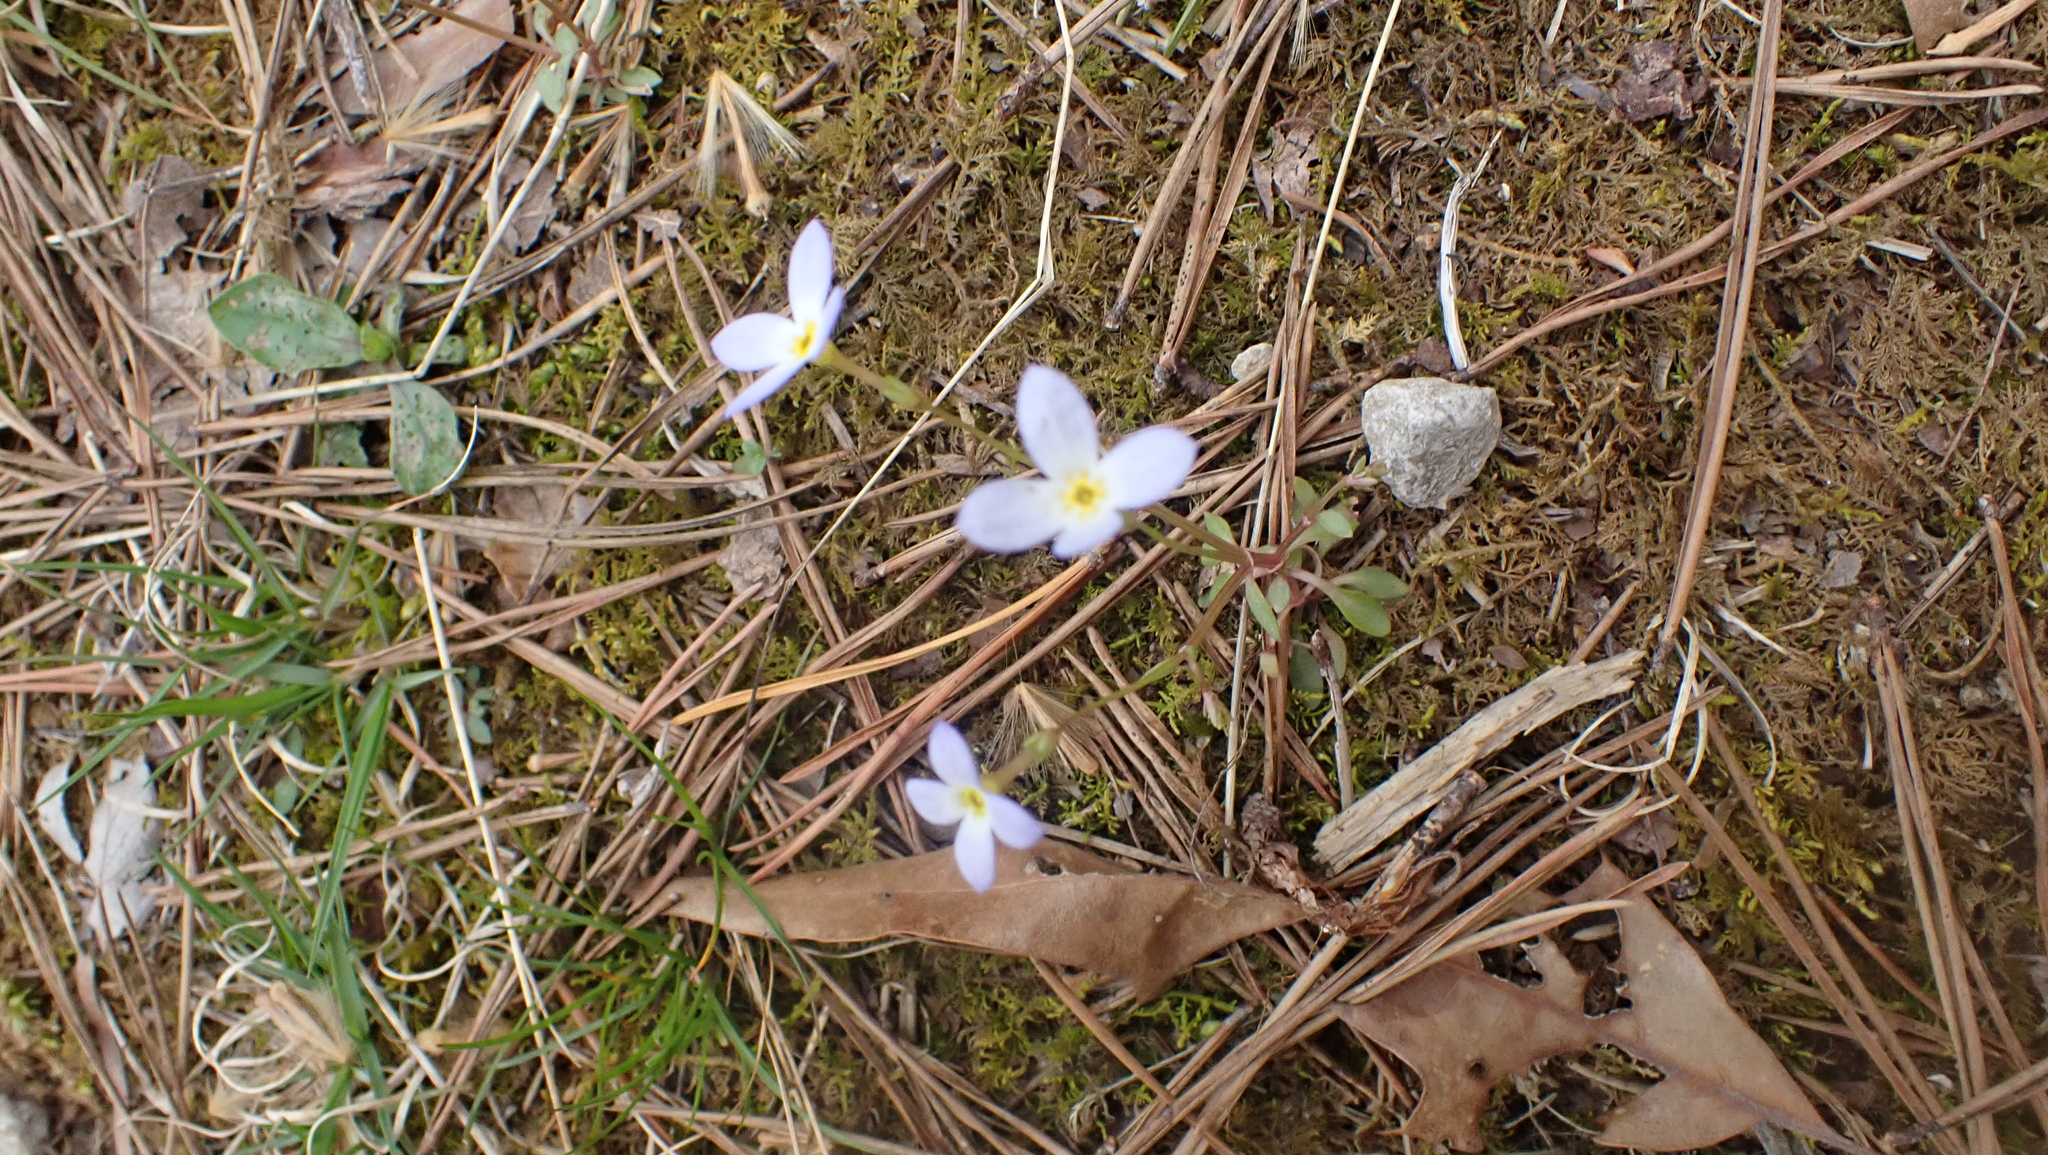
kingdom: Plantae
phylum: Tracheophyta
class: Magnoliopsida
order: Gentianales
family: Rubiaceae
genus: Houstonia
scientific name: Houstonia caerulea
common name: Bluets
